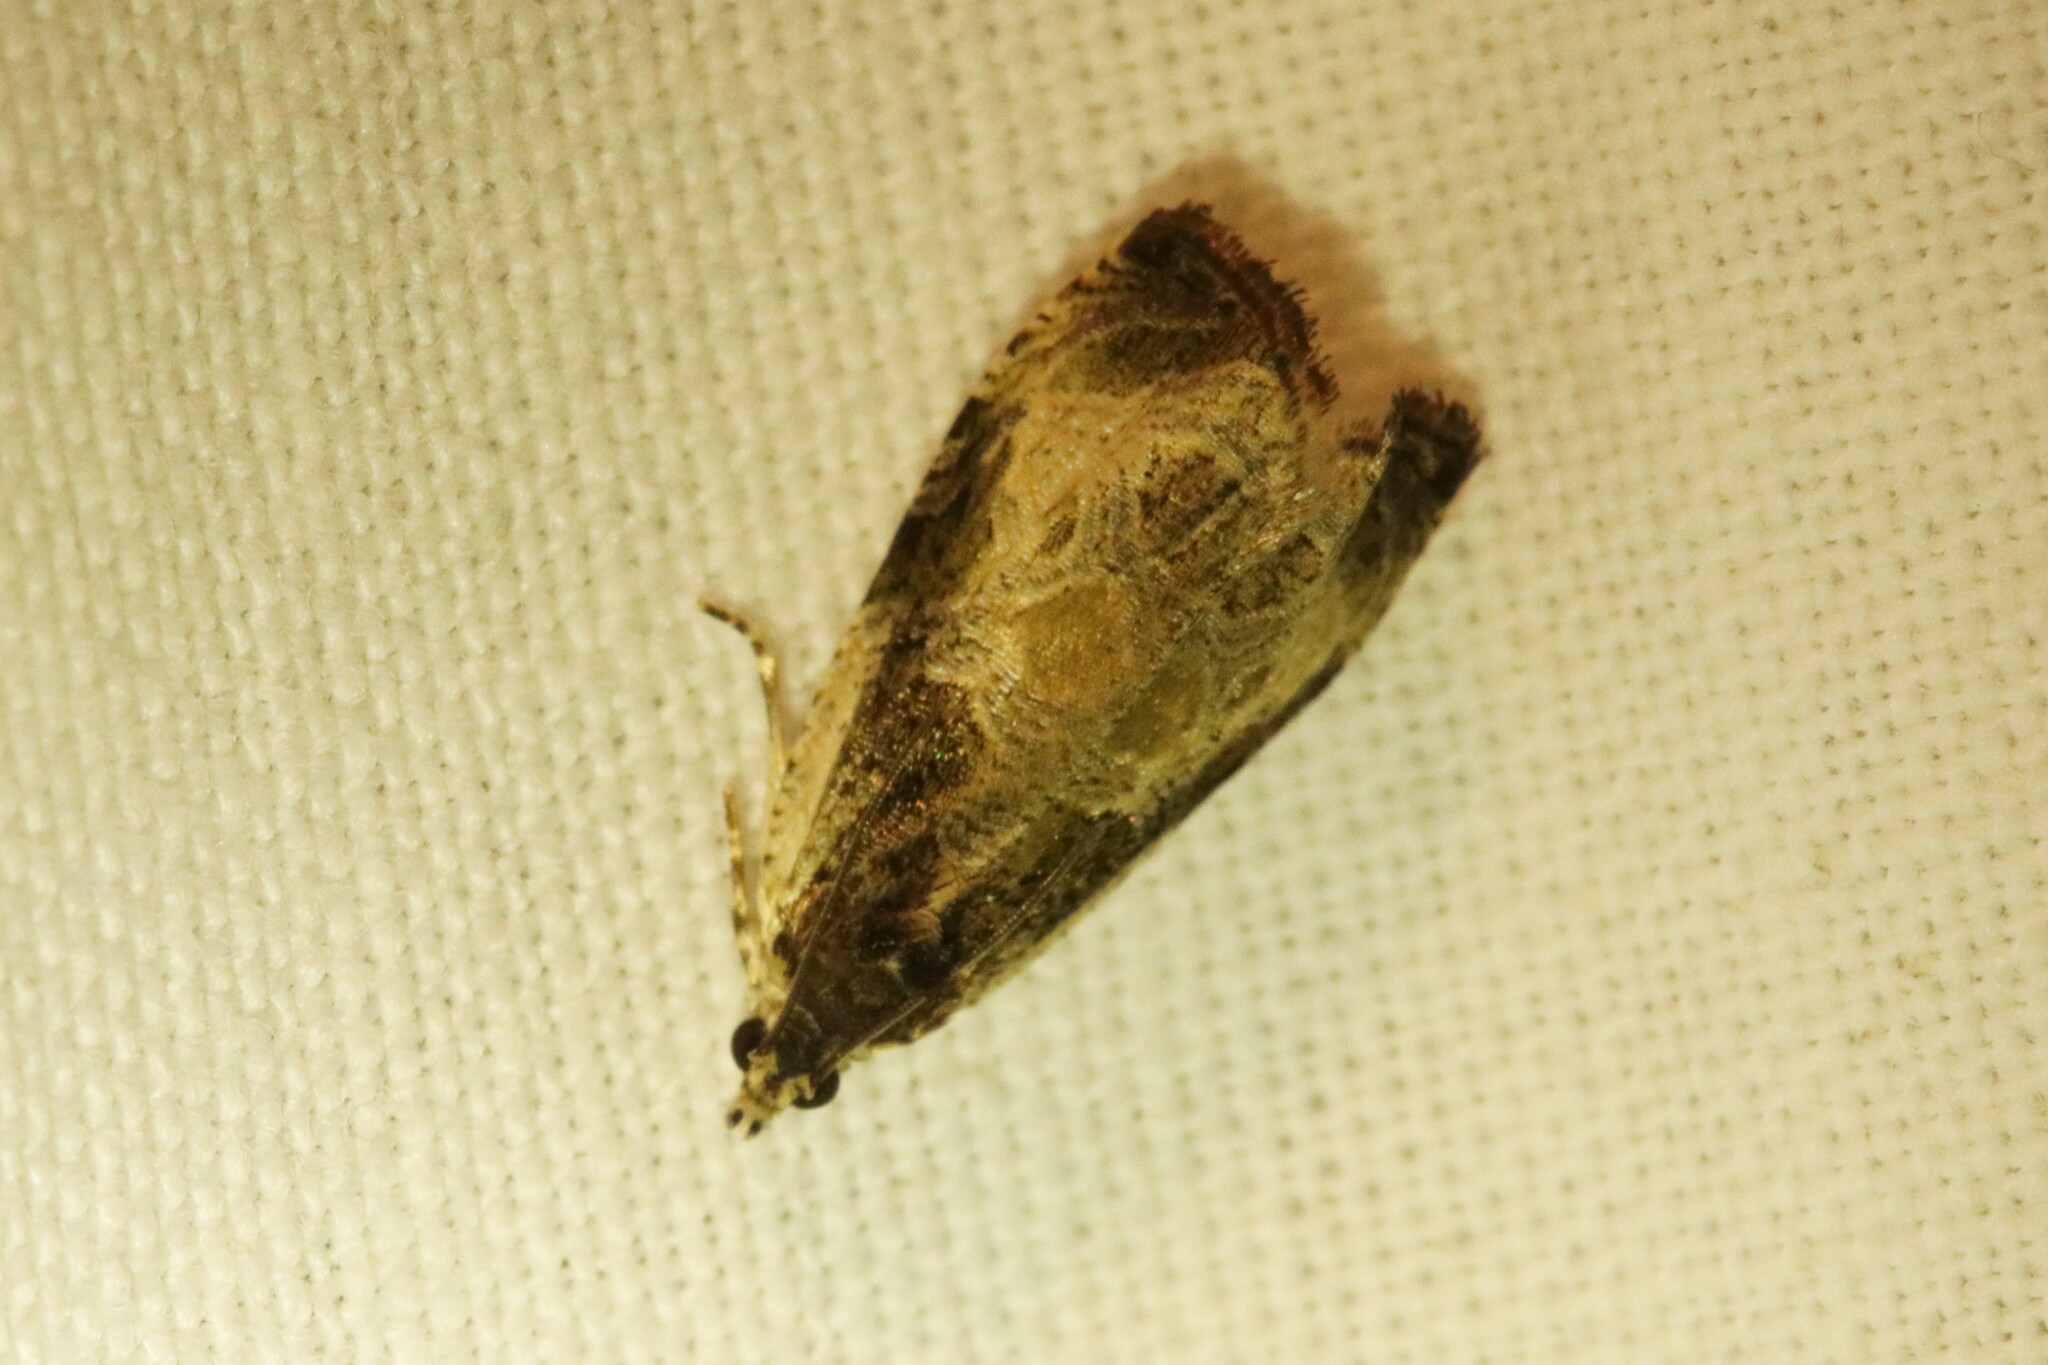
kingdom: Animalia
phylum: Arthropoda
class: Insecta
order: Lepidoptera
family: Tortricidae
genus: Olethreutes
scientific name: Olethreutes connectum
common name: Bunchberry leaffolder moth
